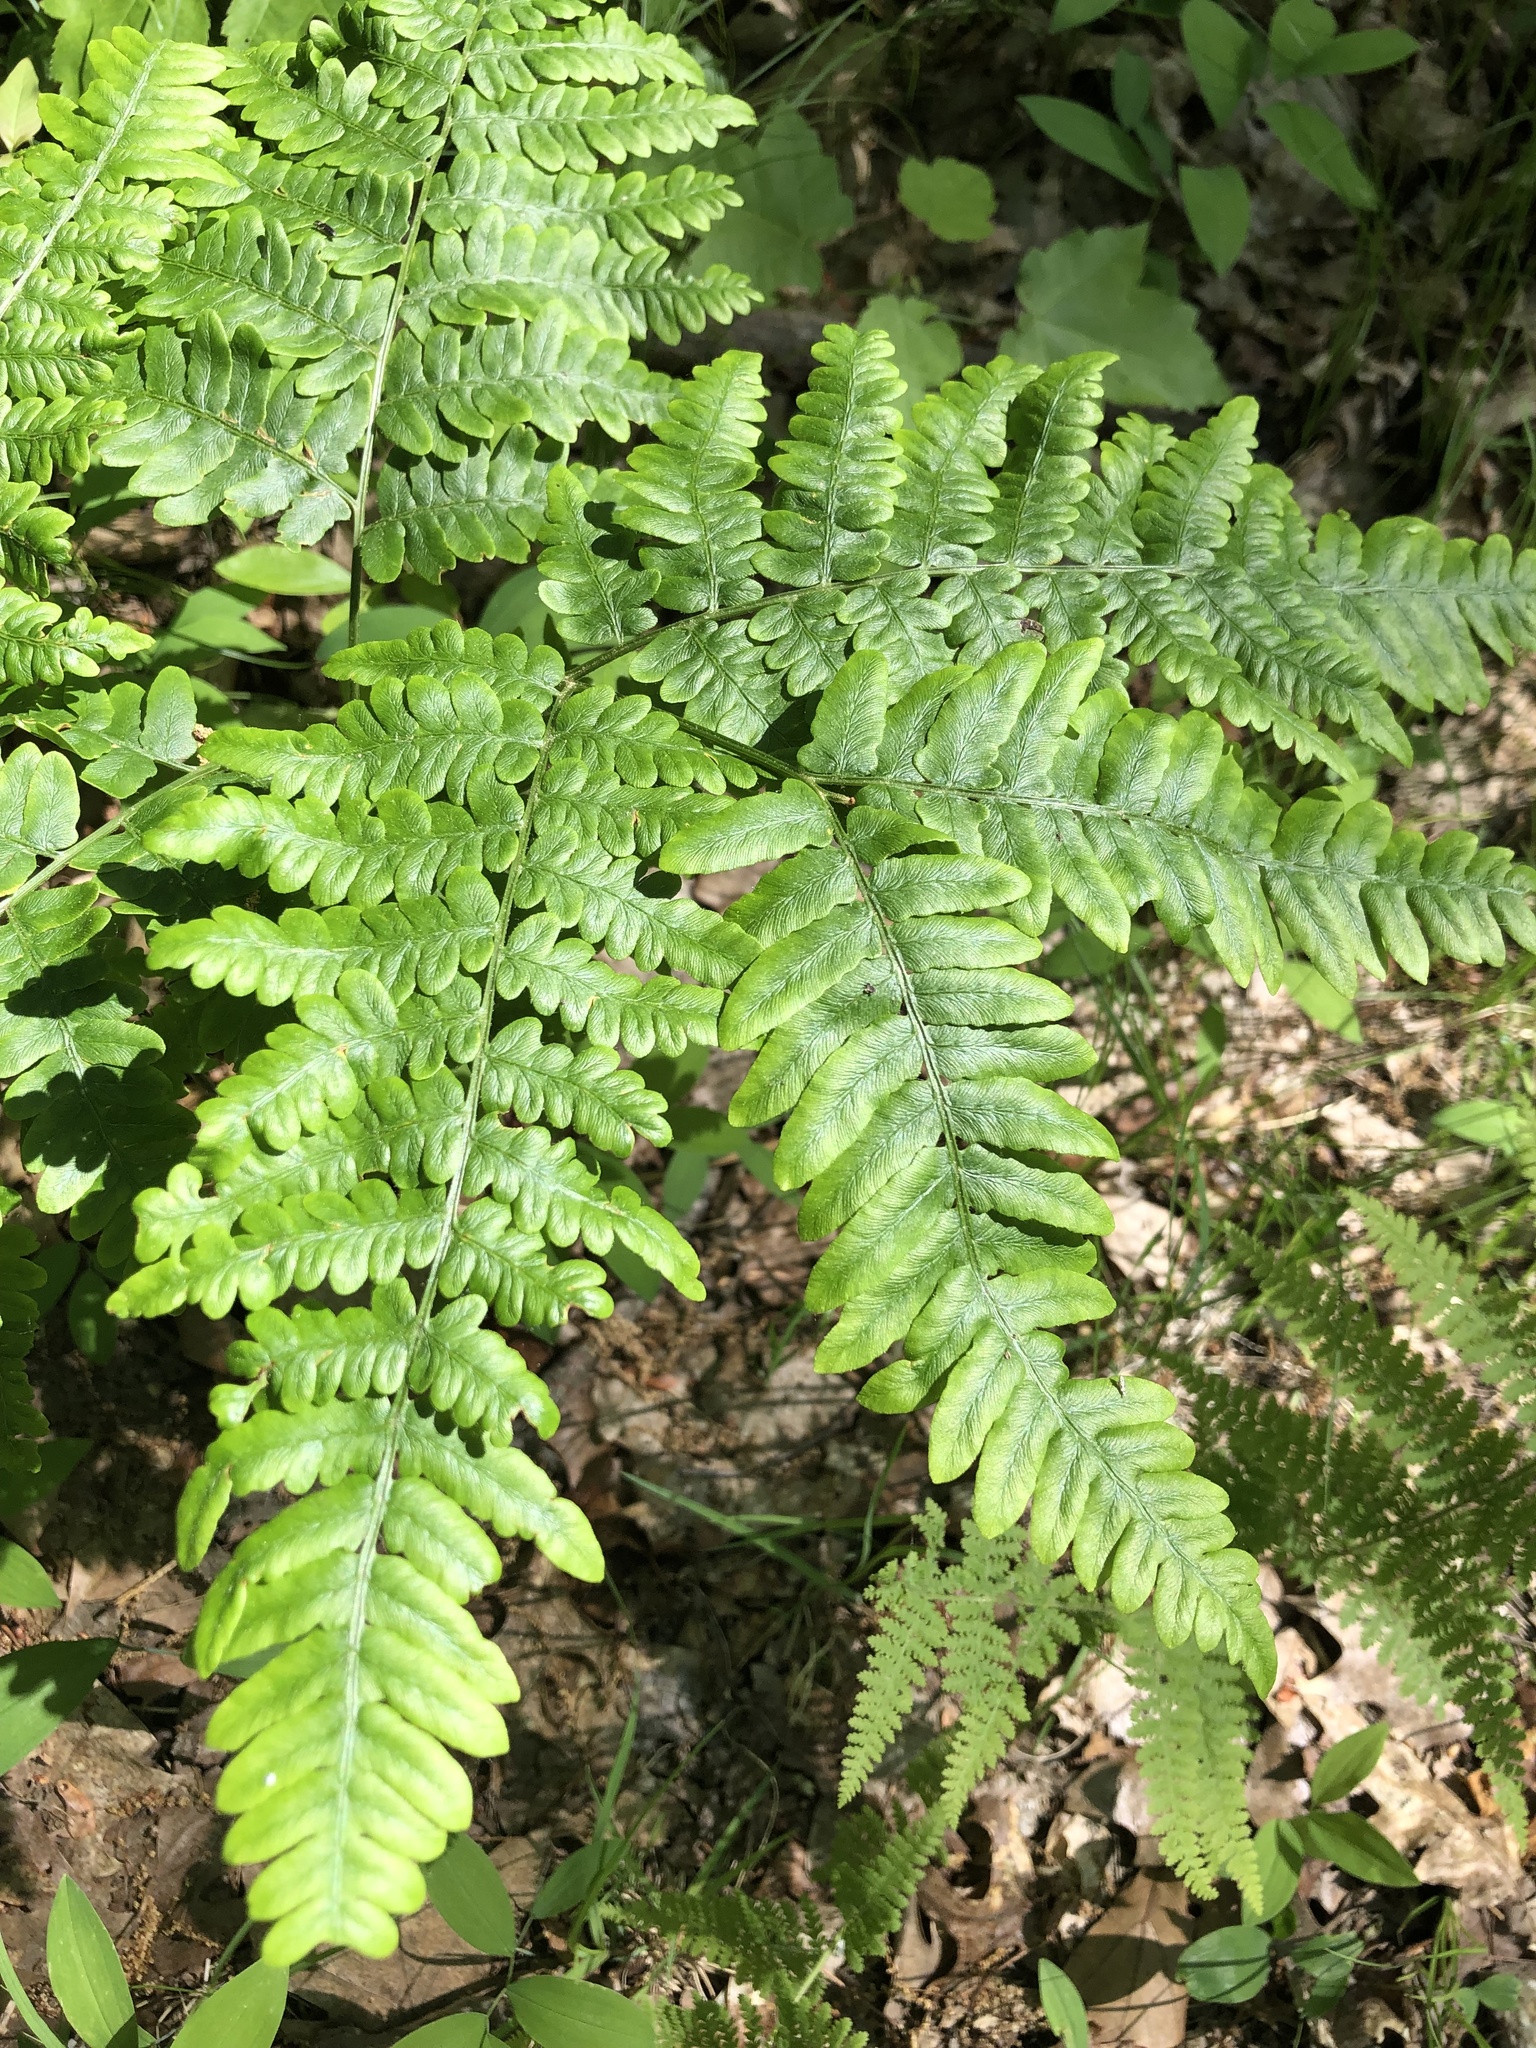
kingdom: Plantae
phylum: Tracheophyta
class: Polypodiopsida
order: Polypodiales
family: Dennstaedtiaceae
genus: Pteridium
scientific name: Pteridium aquilinum
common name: Bracken
